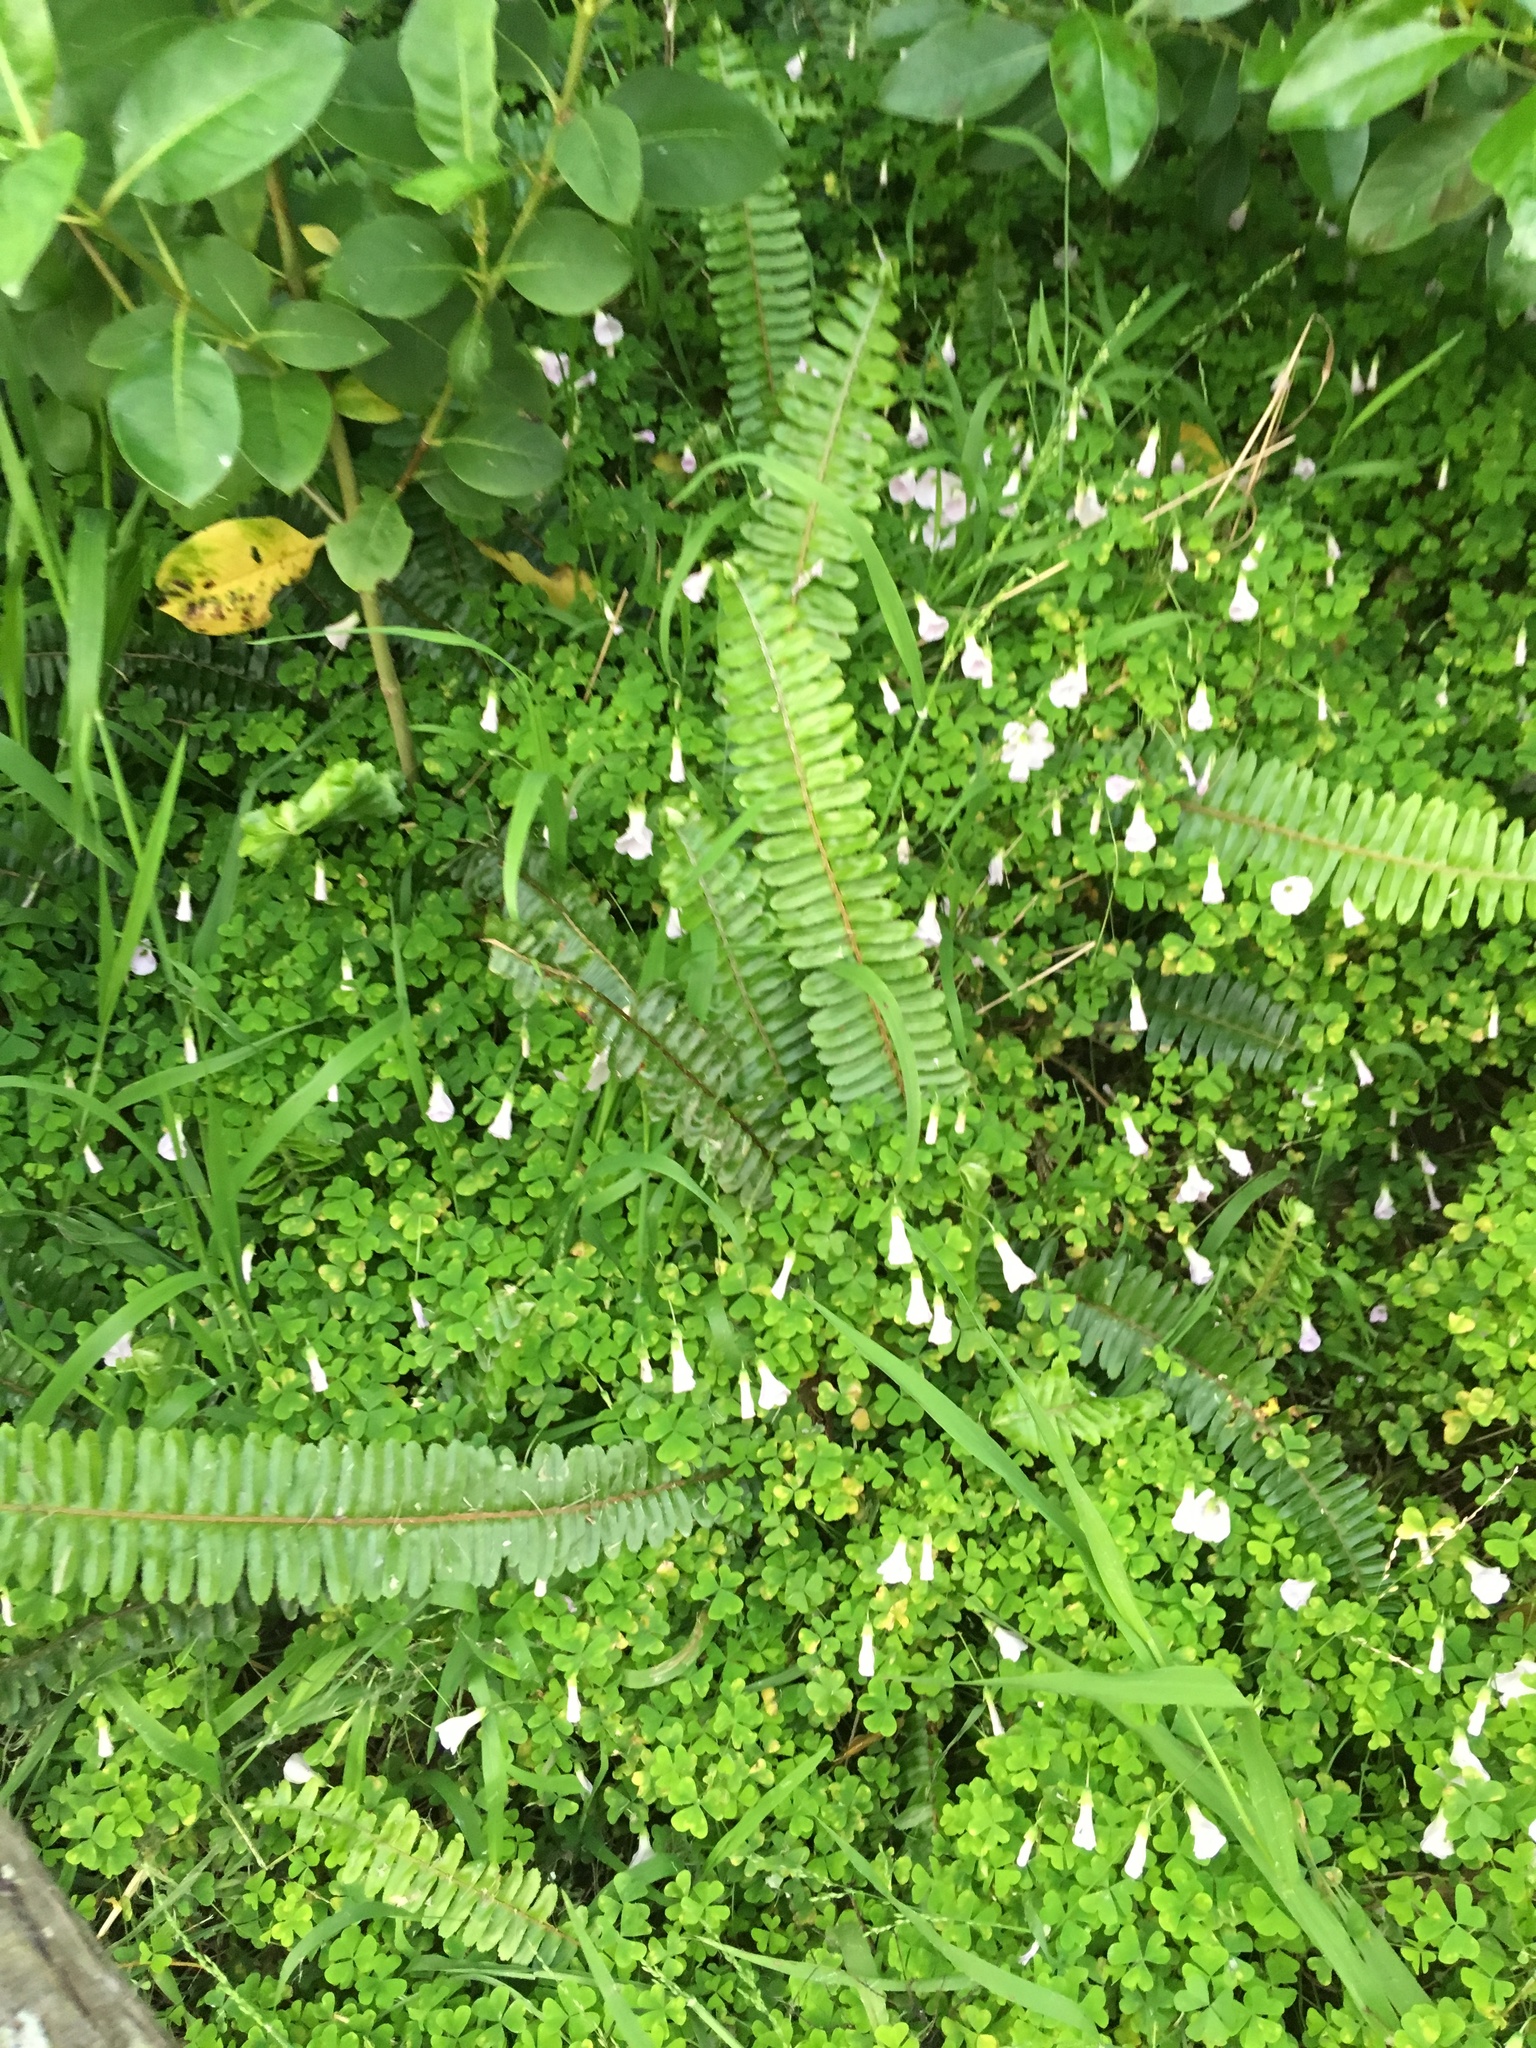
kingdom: Plantae
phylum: Tracheophyta
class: Polypodiopsida
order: Polypodiales
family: Nephrolepidaceae
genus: Nephrolepis
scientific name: Nephrolepis cordifolia
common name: Narrow swordfern
